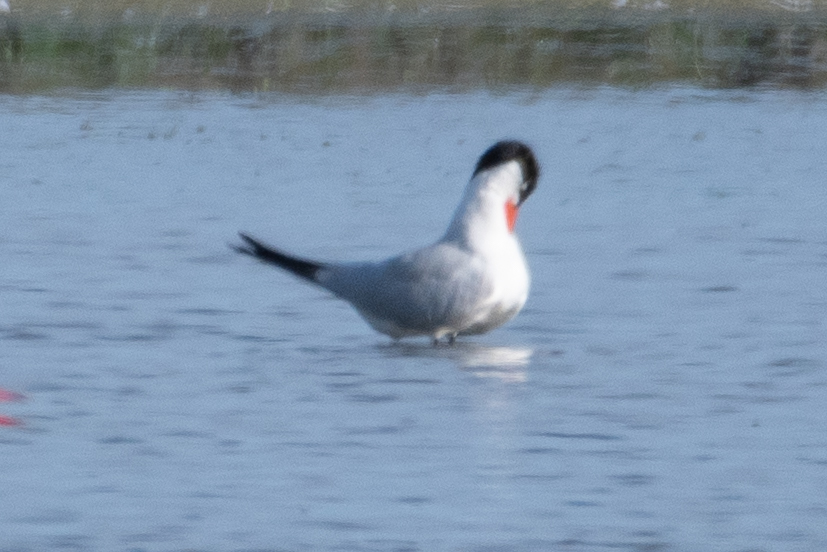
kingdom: Animalia
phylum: Chordata
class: Aves
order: Charadriiformes
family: Laridae
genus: Hydroprogne
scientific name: Hydroprogne caspia
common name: Caspian tern
